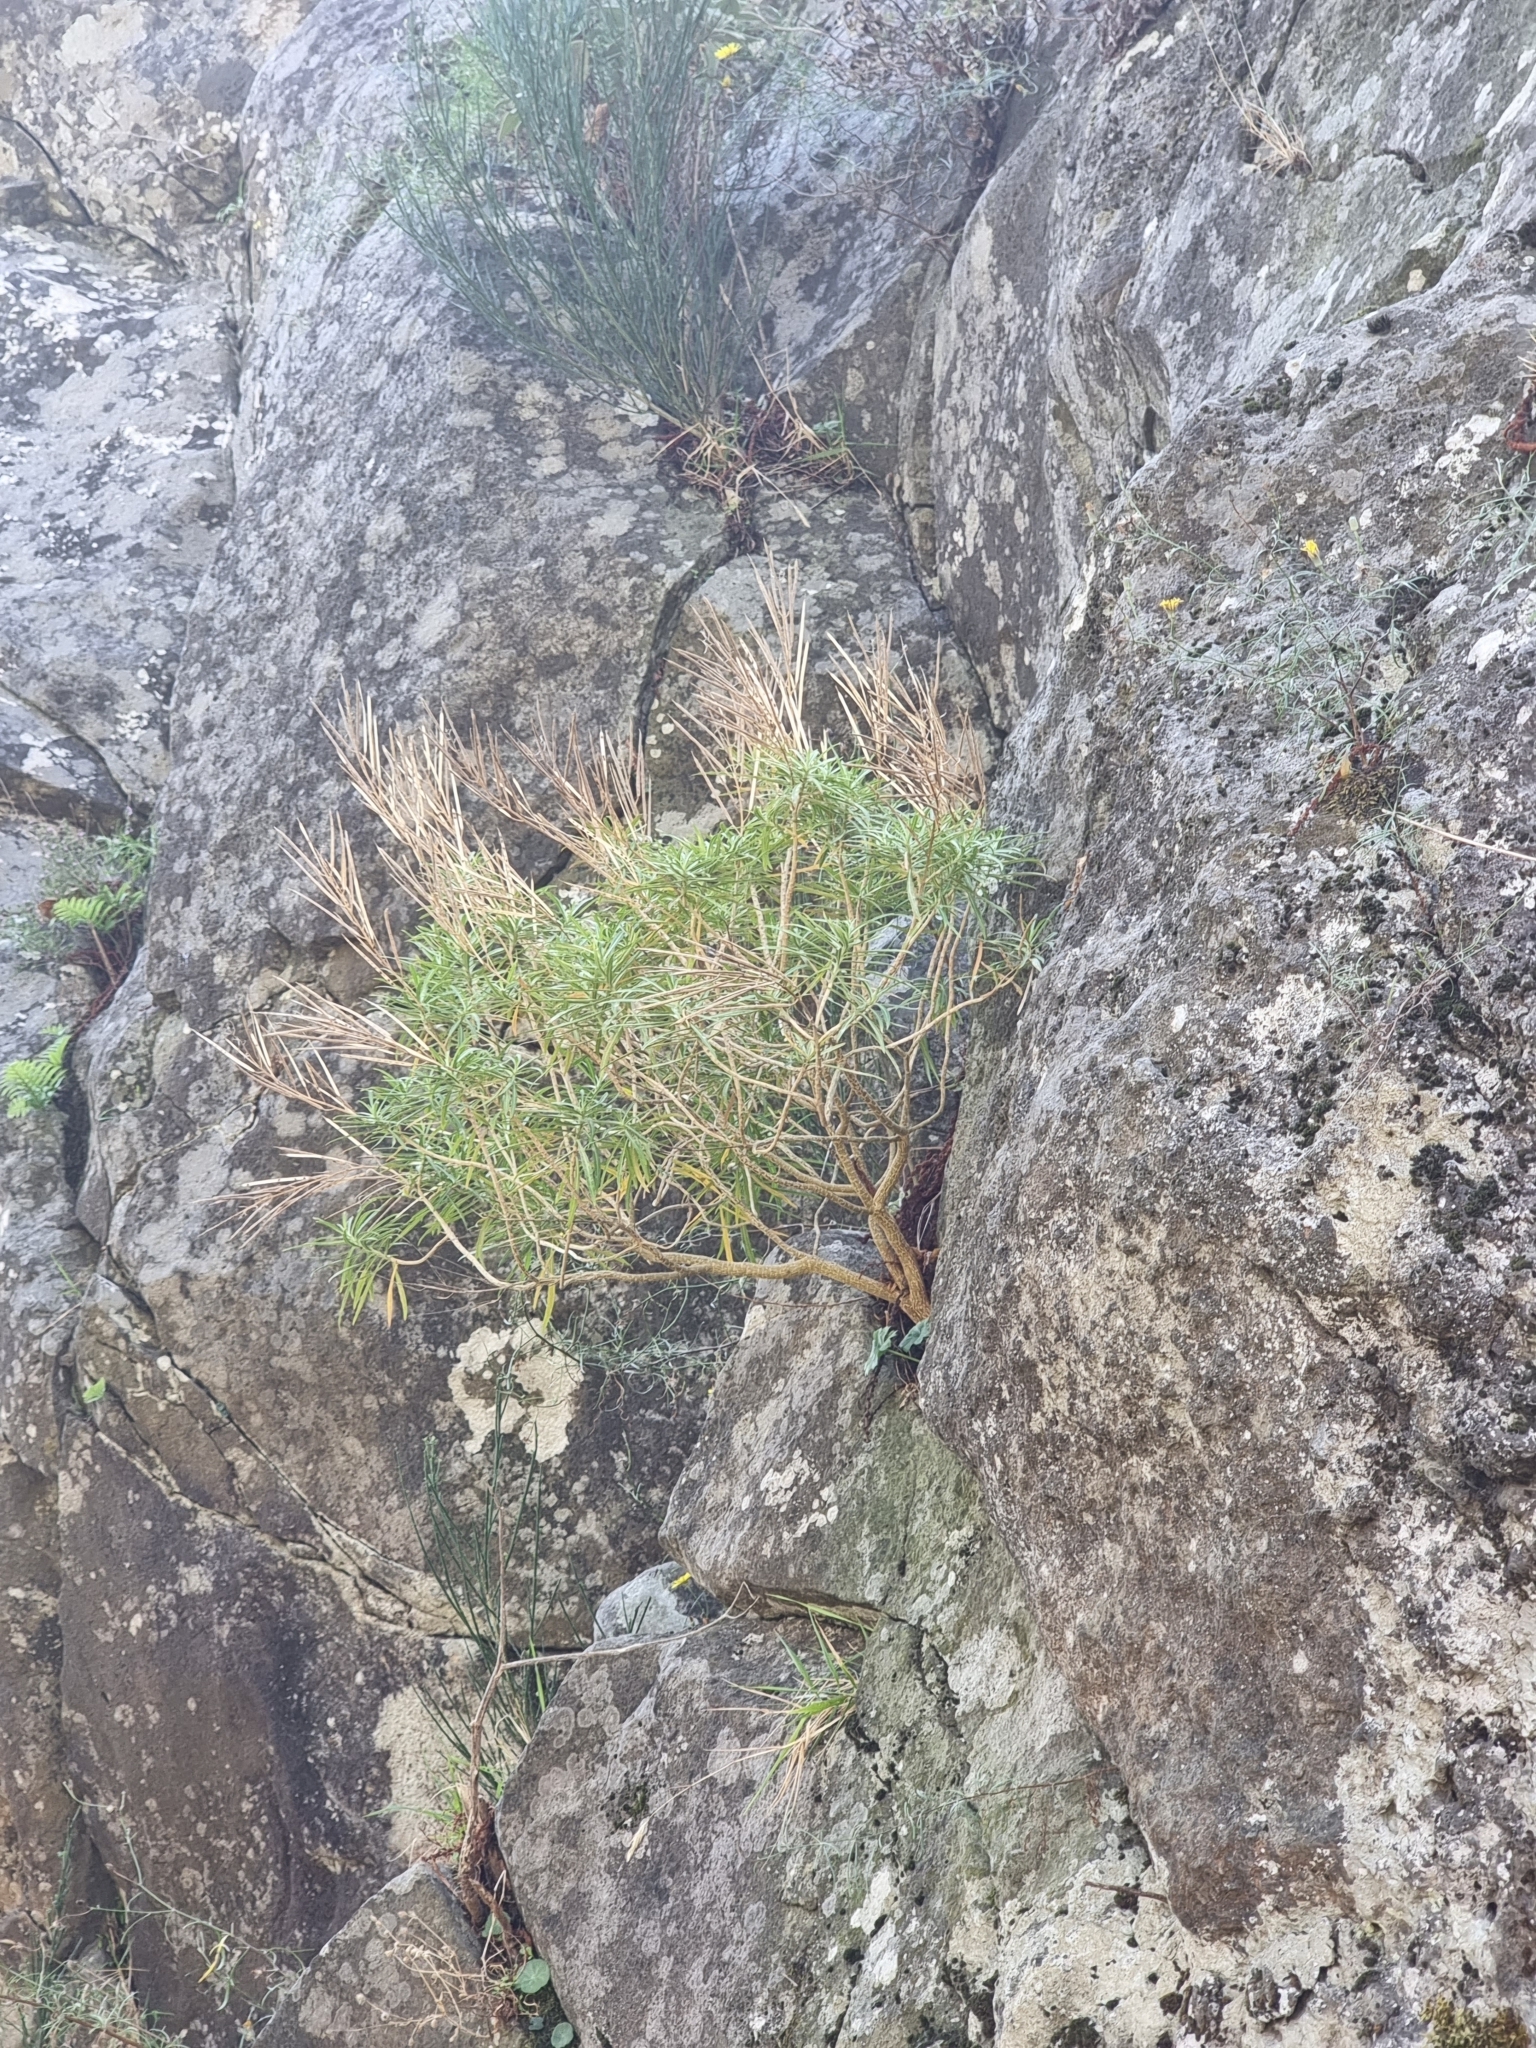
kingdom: Plantae
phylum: Tracheophyta
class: Magnoliopsida
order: Brassicales
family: Brassicaceae
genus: Erysimum
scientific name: Erysimum bicolor
